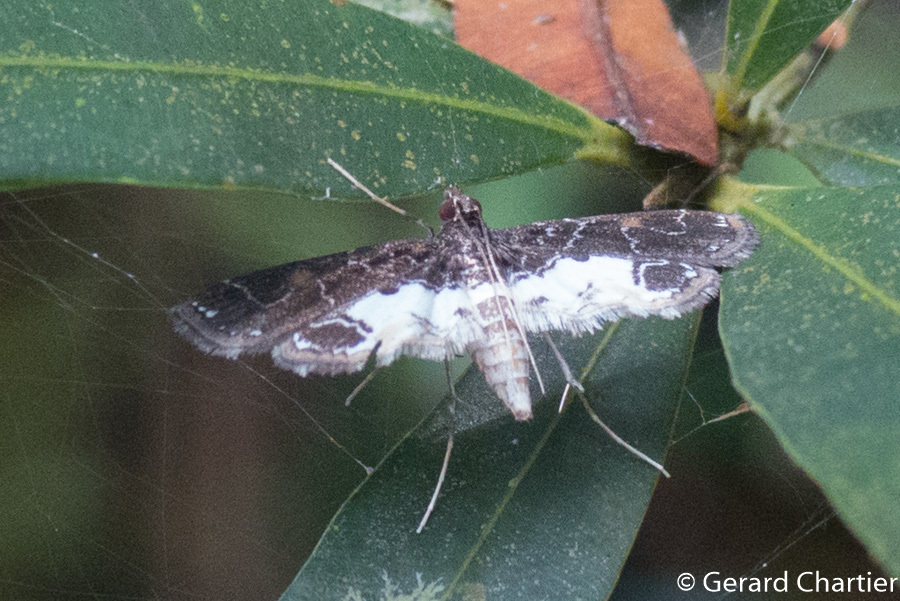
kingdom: Animalia
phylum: Arthropoda
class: Insecta
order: Lepidoptera
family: Crambidae
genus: Paracymoriza
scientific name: Paracymoriza albifascialis
